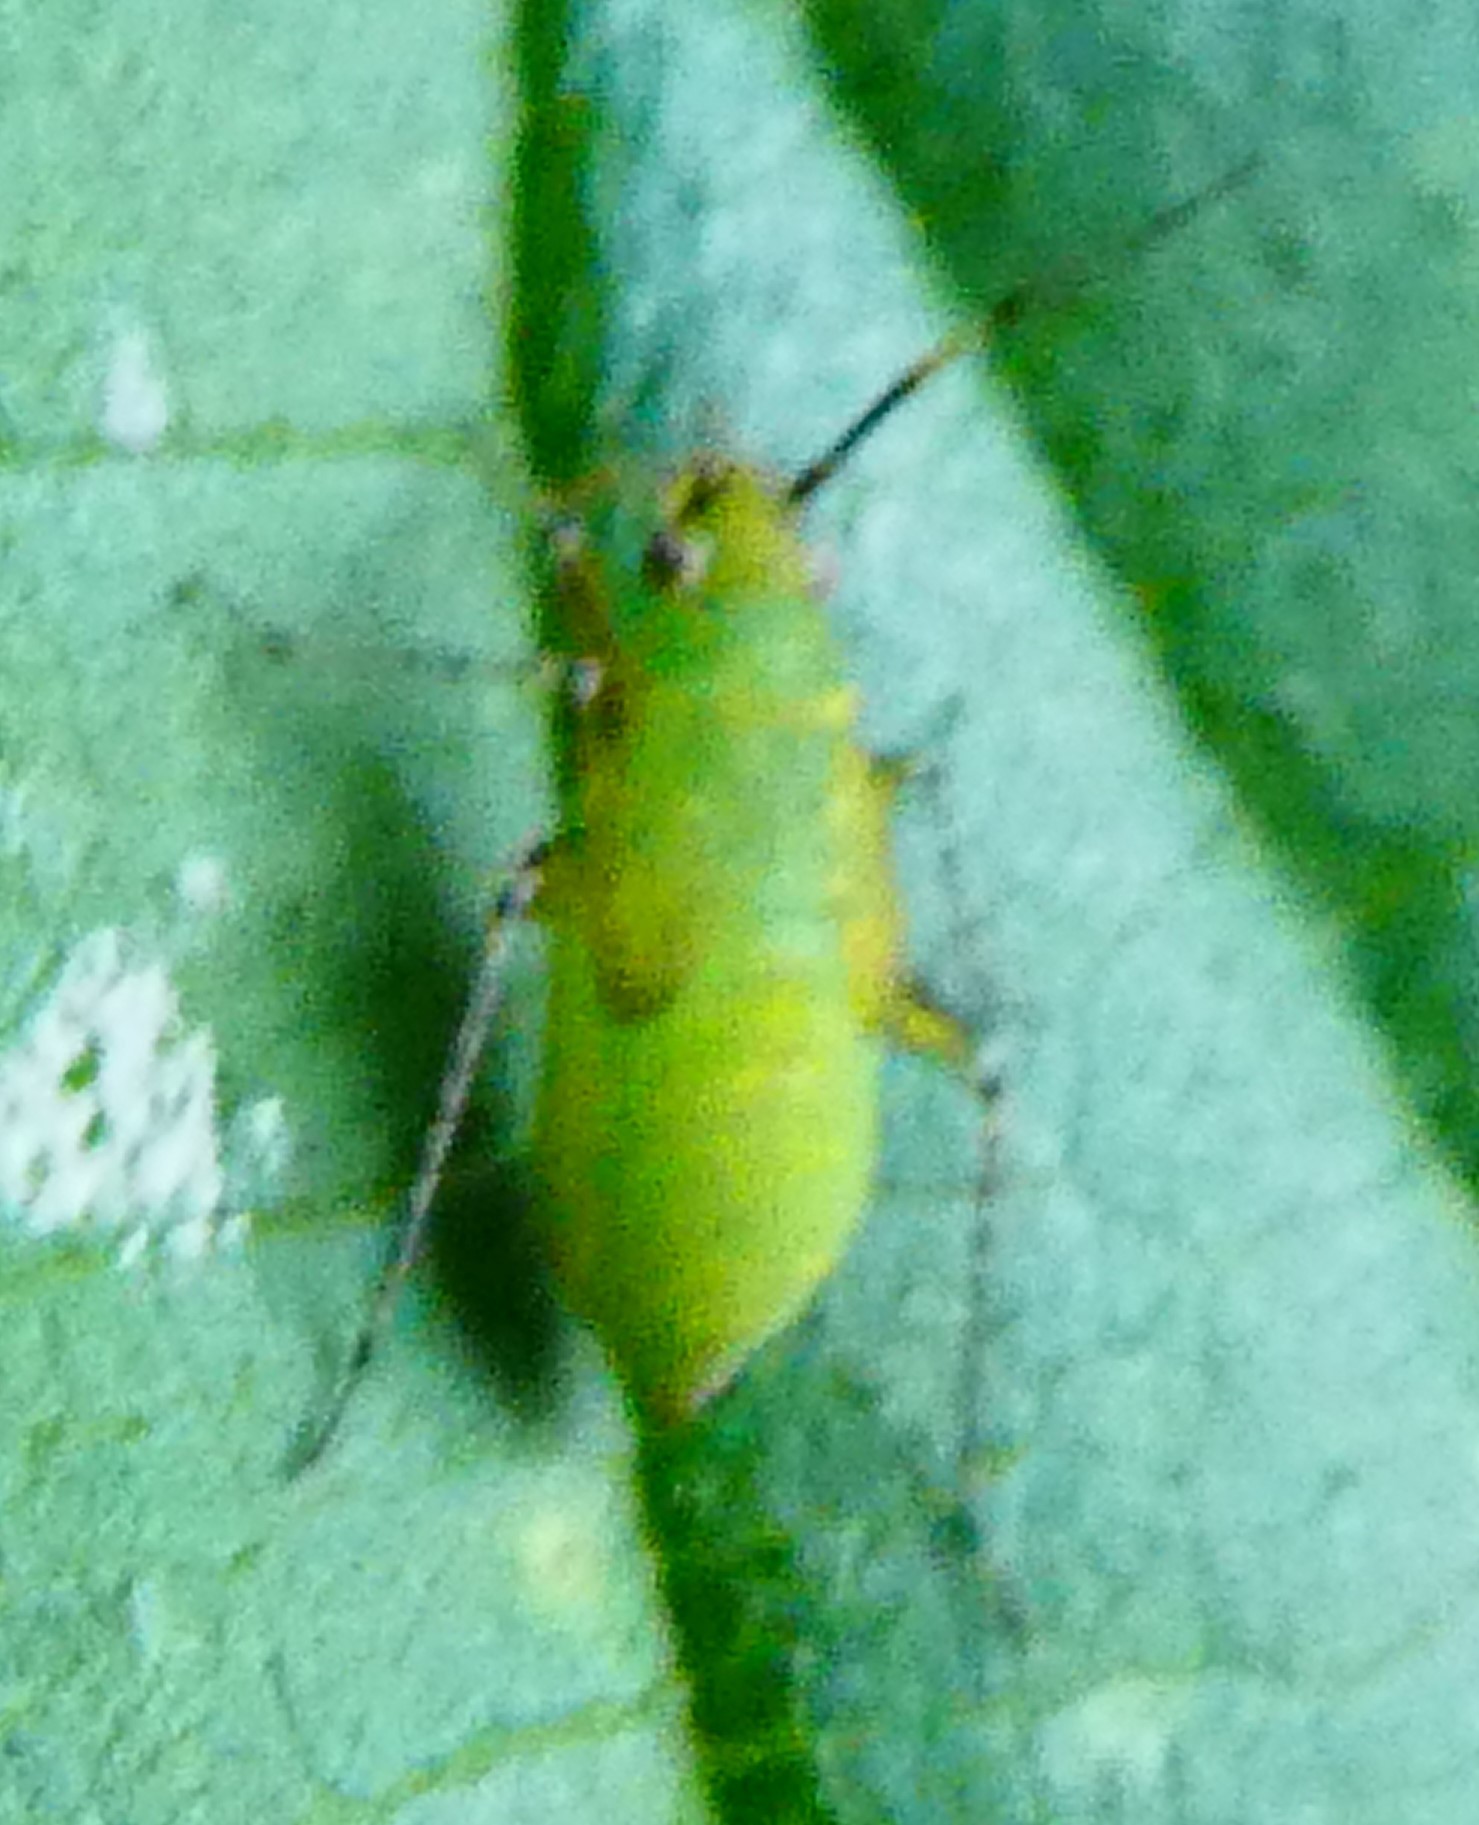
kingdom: Animalia
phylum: Arthropoda
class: Insecta
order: Hemiptera
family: Miridae
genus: Plagiognathus
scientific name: Plagiognathus arbustorum
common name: Plant bug
